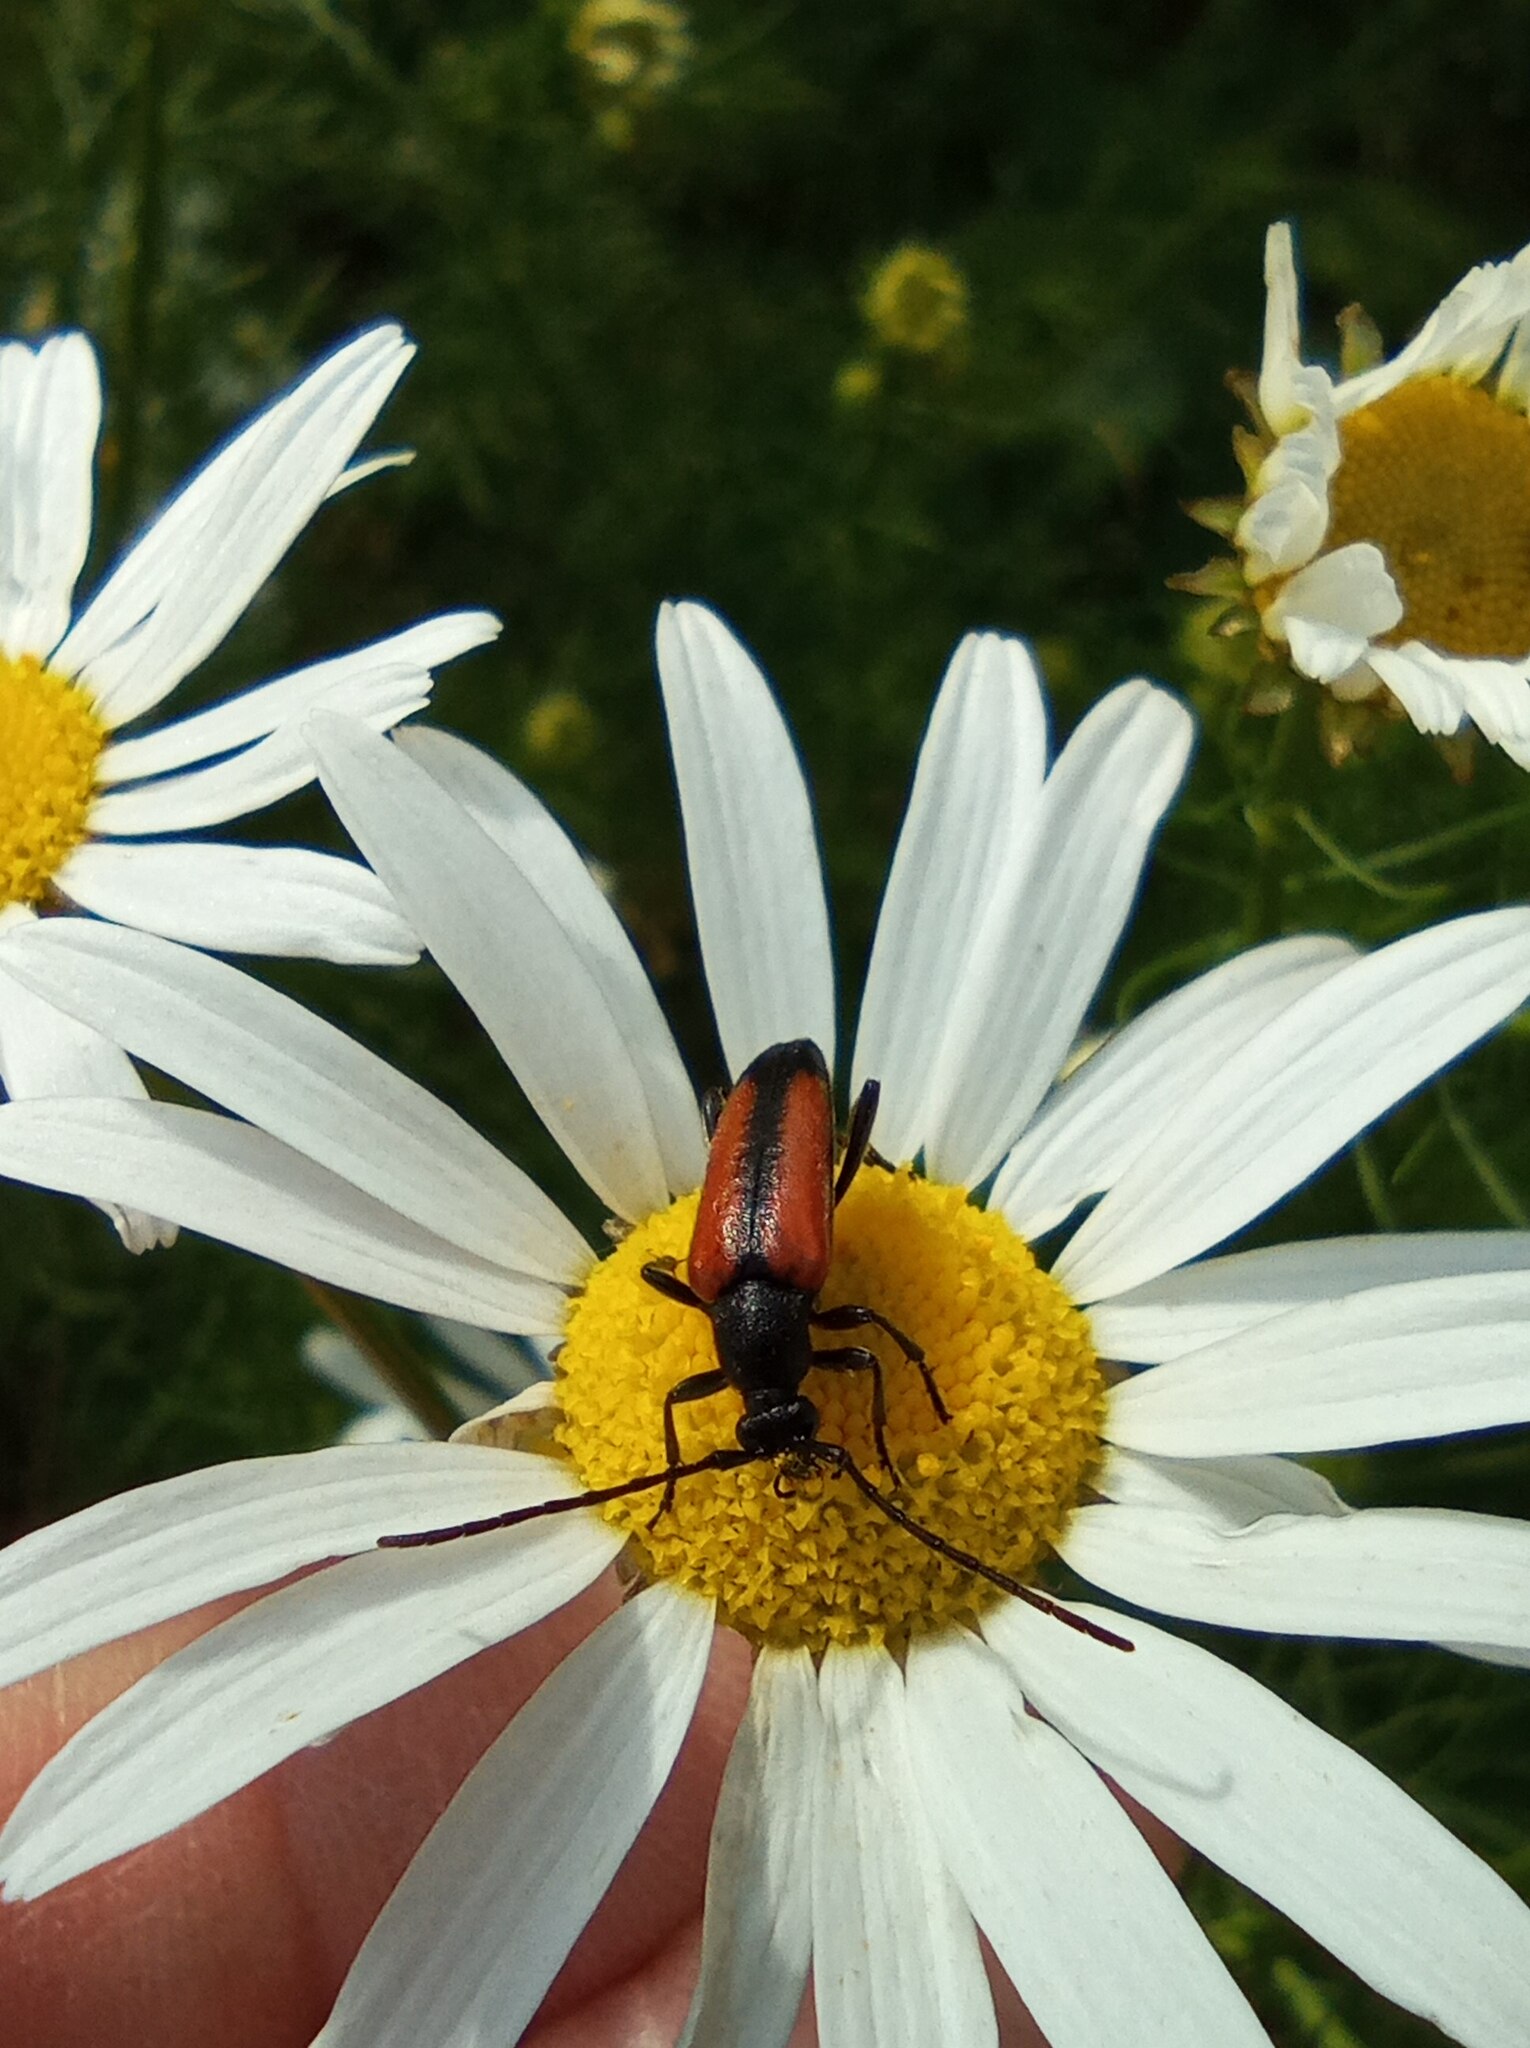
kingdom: Animalia
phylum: Arthropoda
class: Insecta
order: Coleoptera
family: Cerambycidae
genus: Stenurella
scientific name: Stenurella melanura
